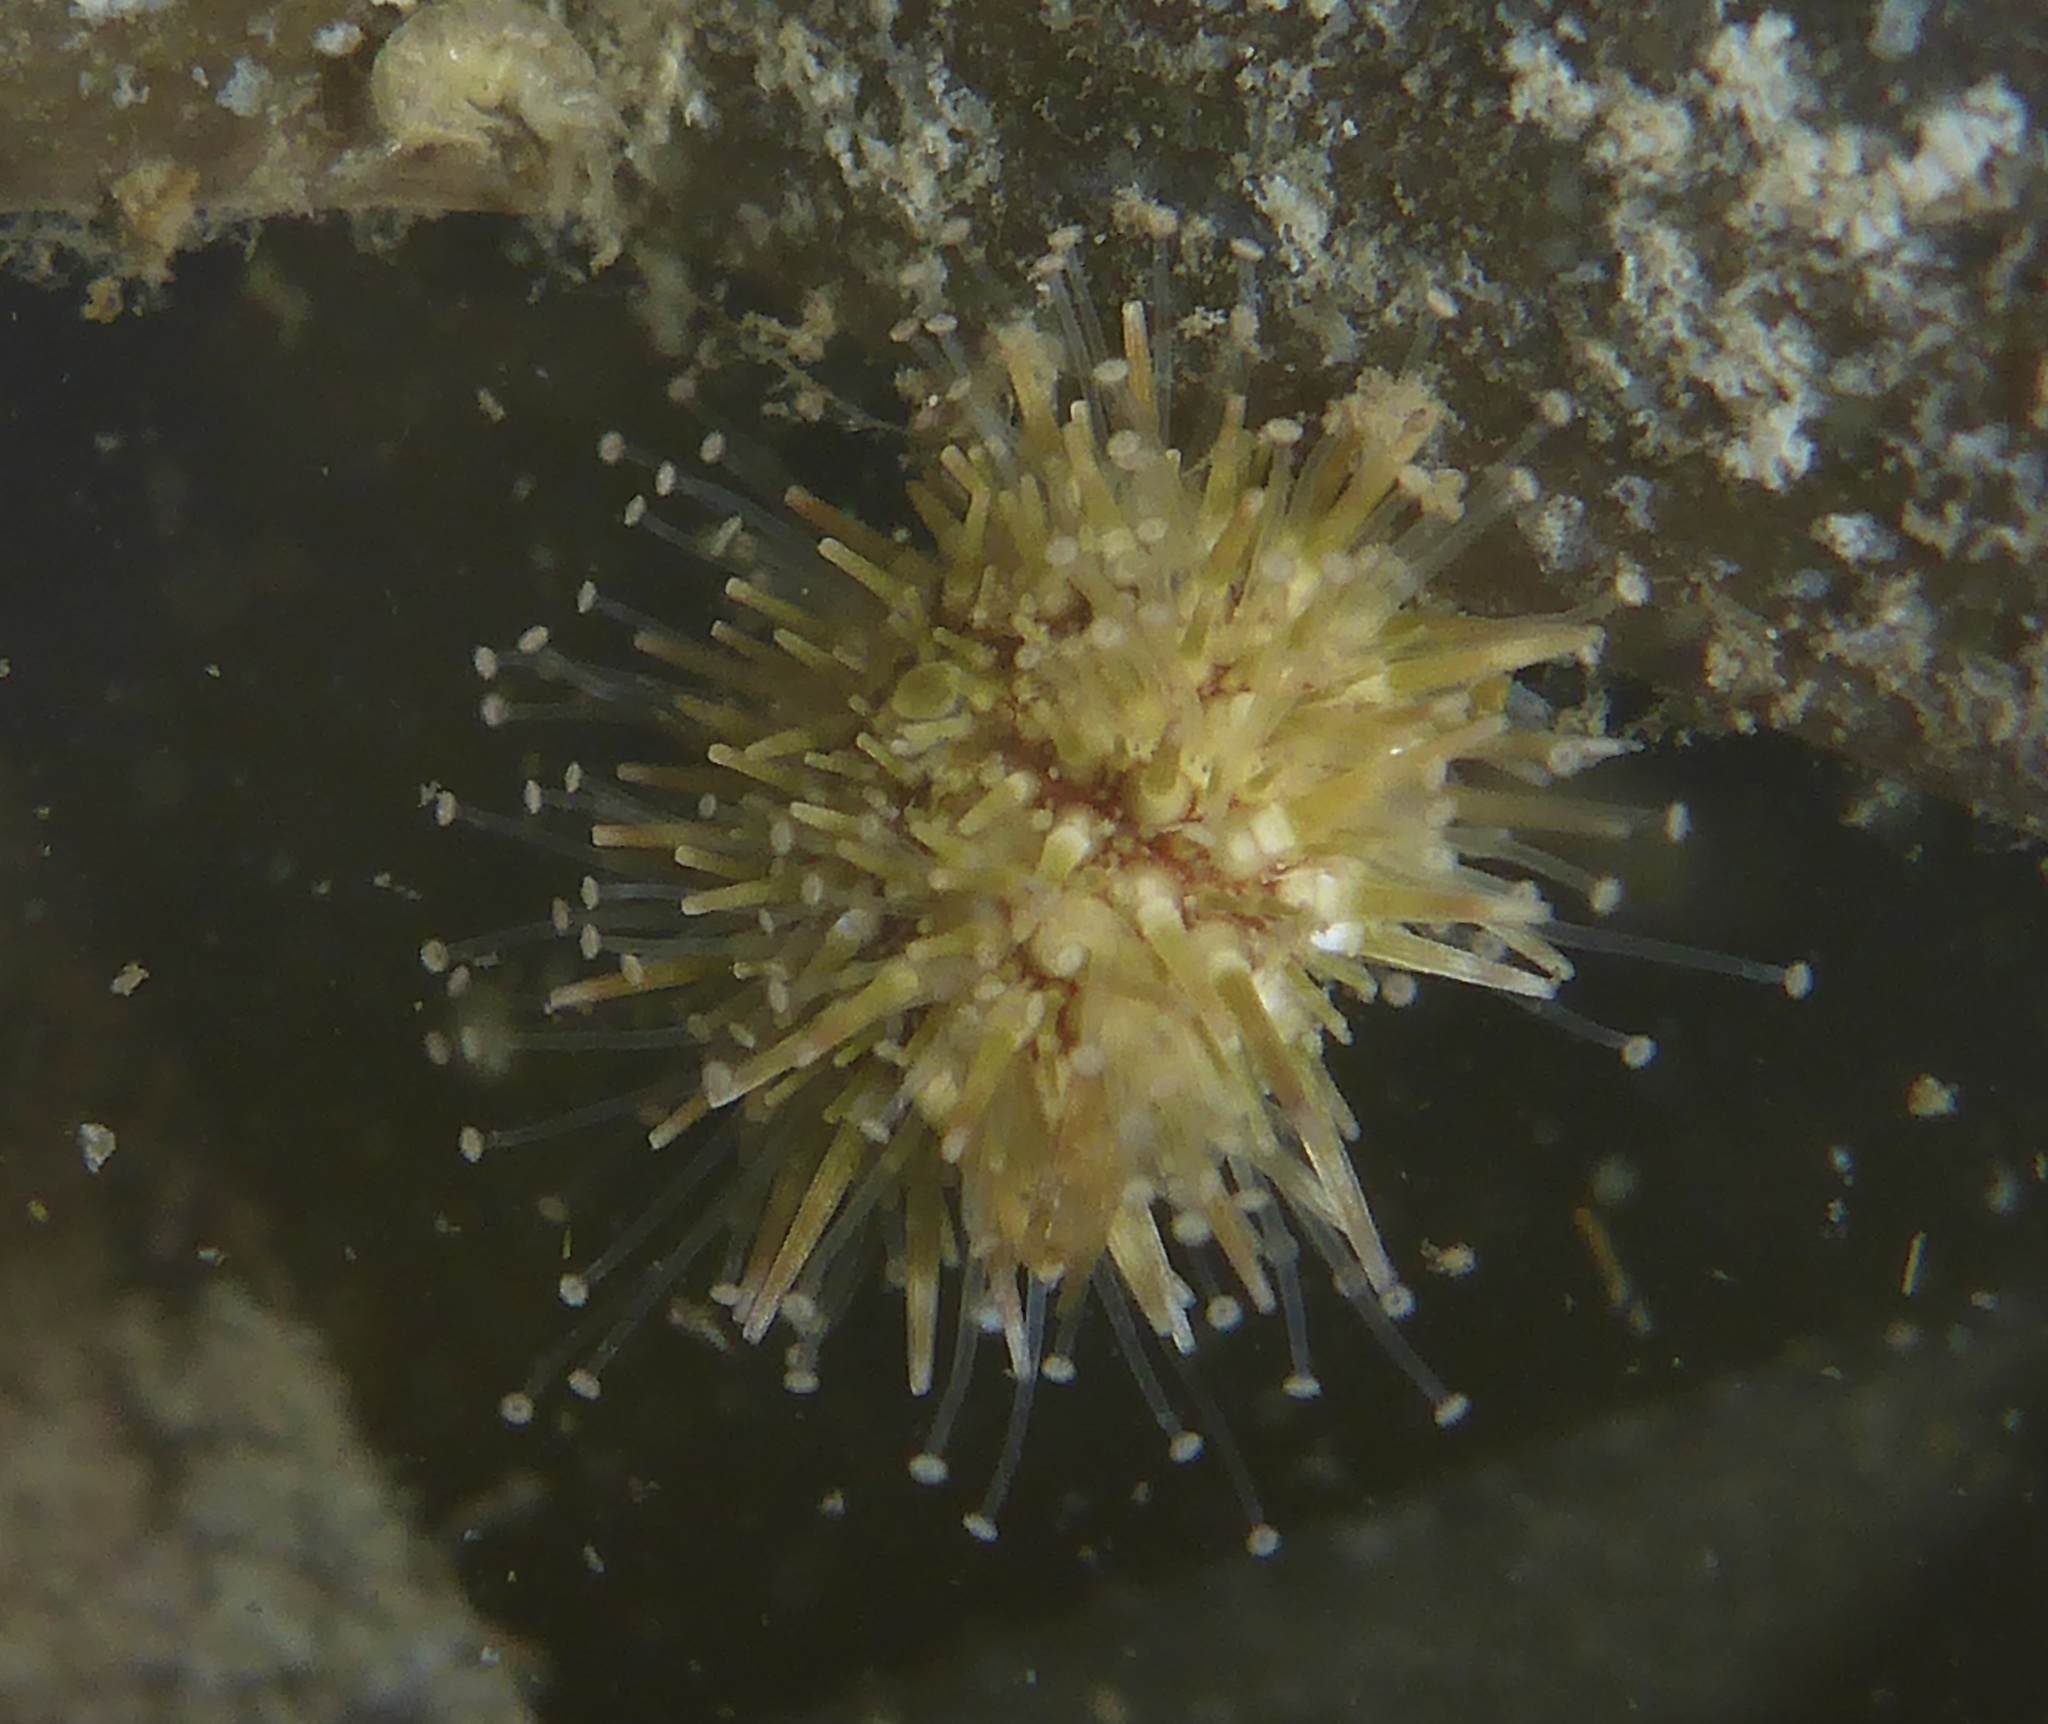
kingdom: Animalia
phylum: Echinodermata
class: Echinoidea
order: Camarodonta
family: Strongylocentrotidae
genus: Strongylocentrotus
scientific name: Strongylocentrotus purpuratus
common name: Purple sea urchin
